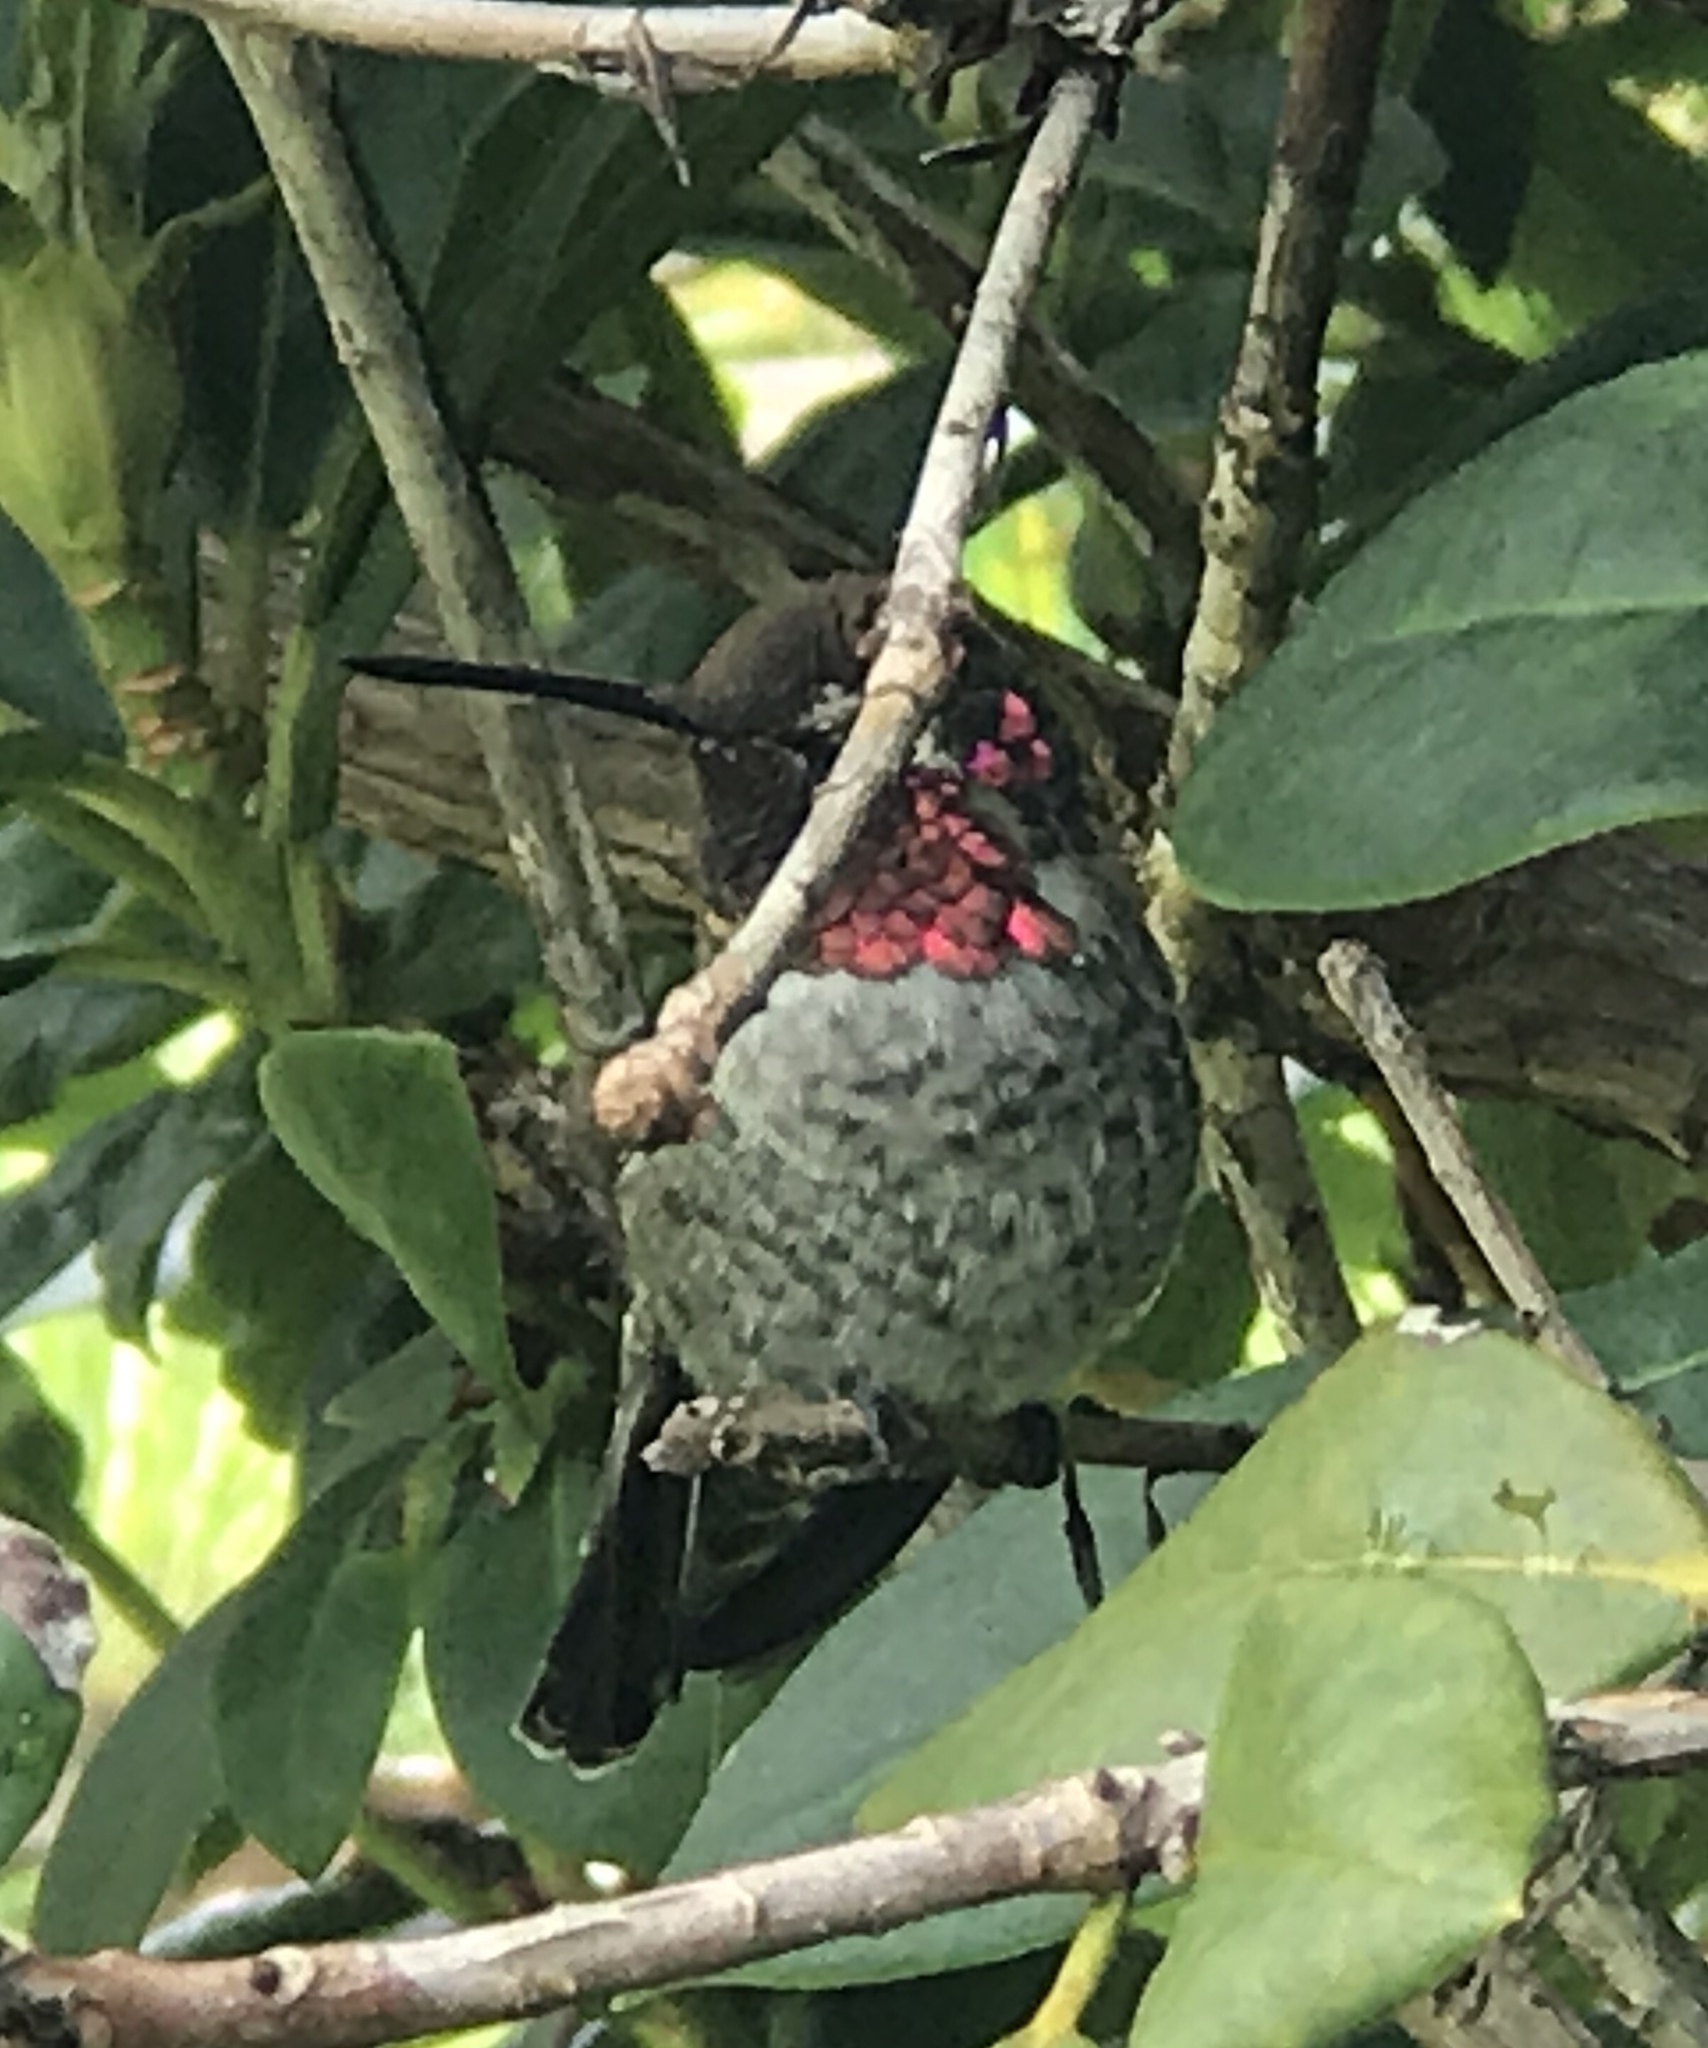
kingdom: Animalia
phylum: Chordata
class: Aves
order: Apodiformes
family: Trochilidae
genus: Calypte
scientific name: Calypte anna
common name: Anna's hummingbird
